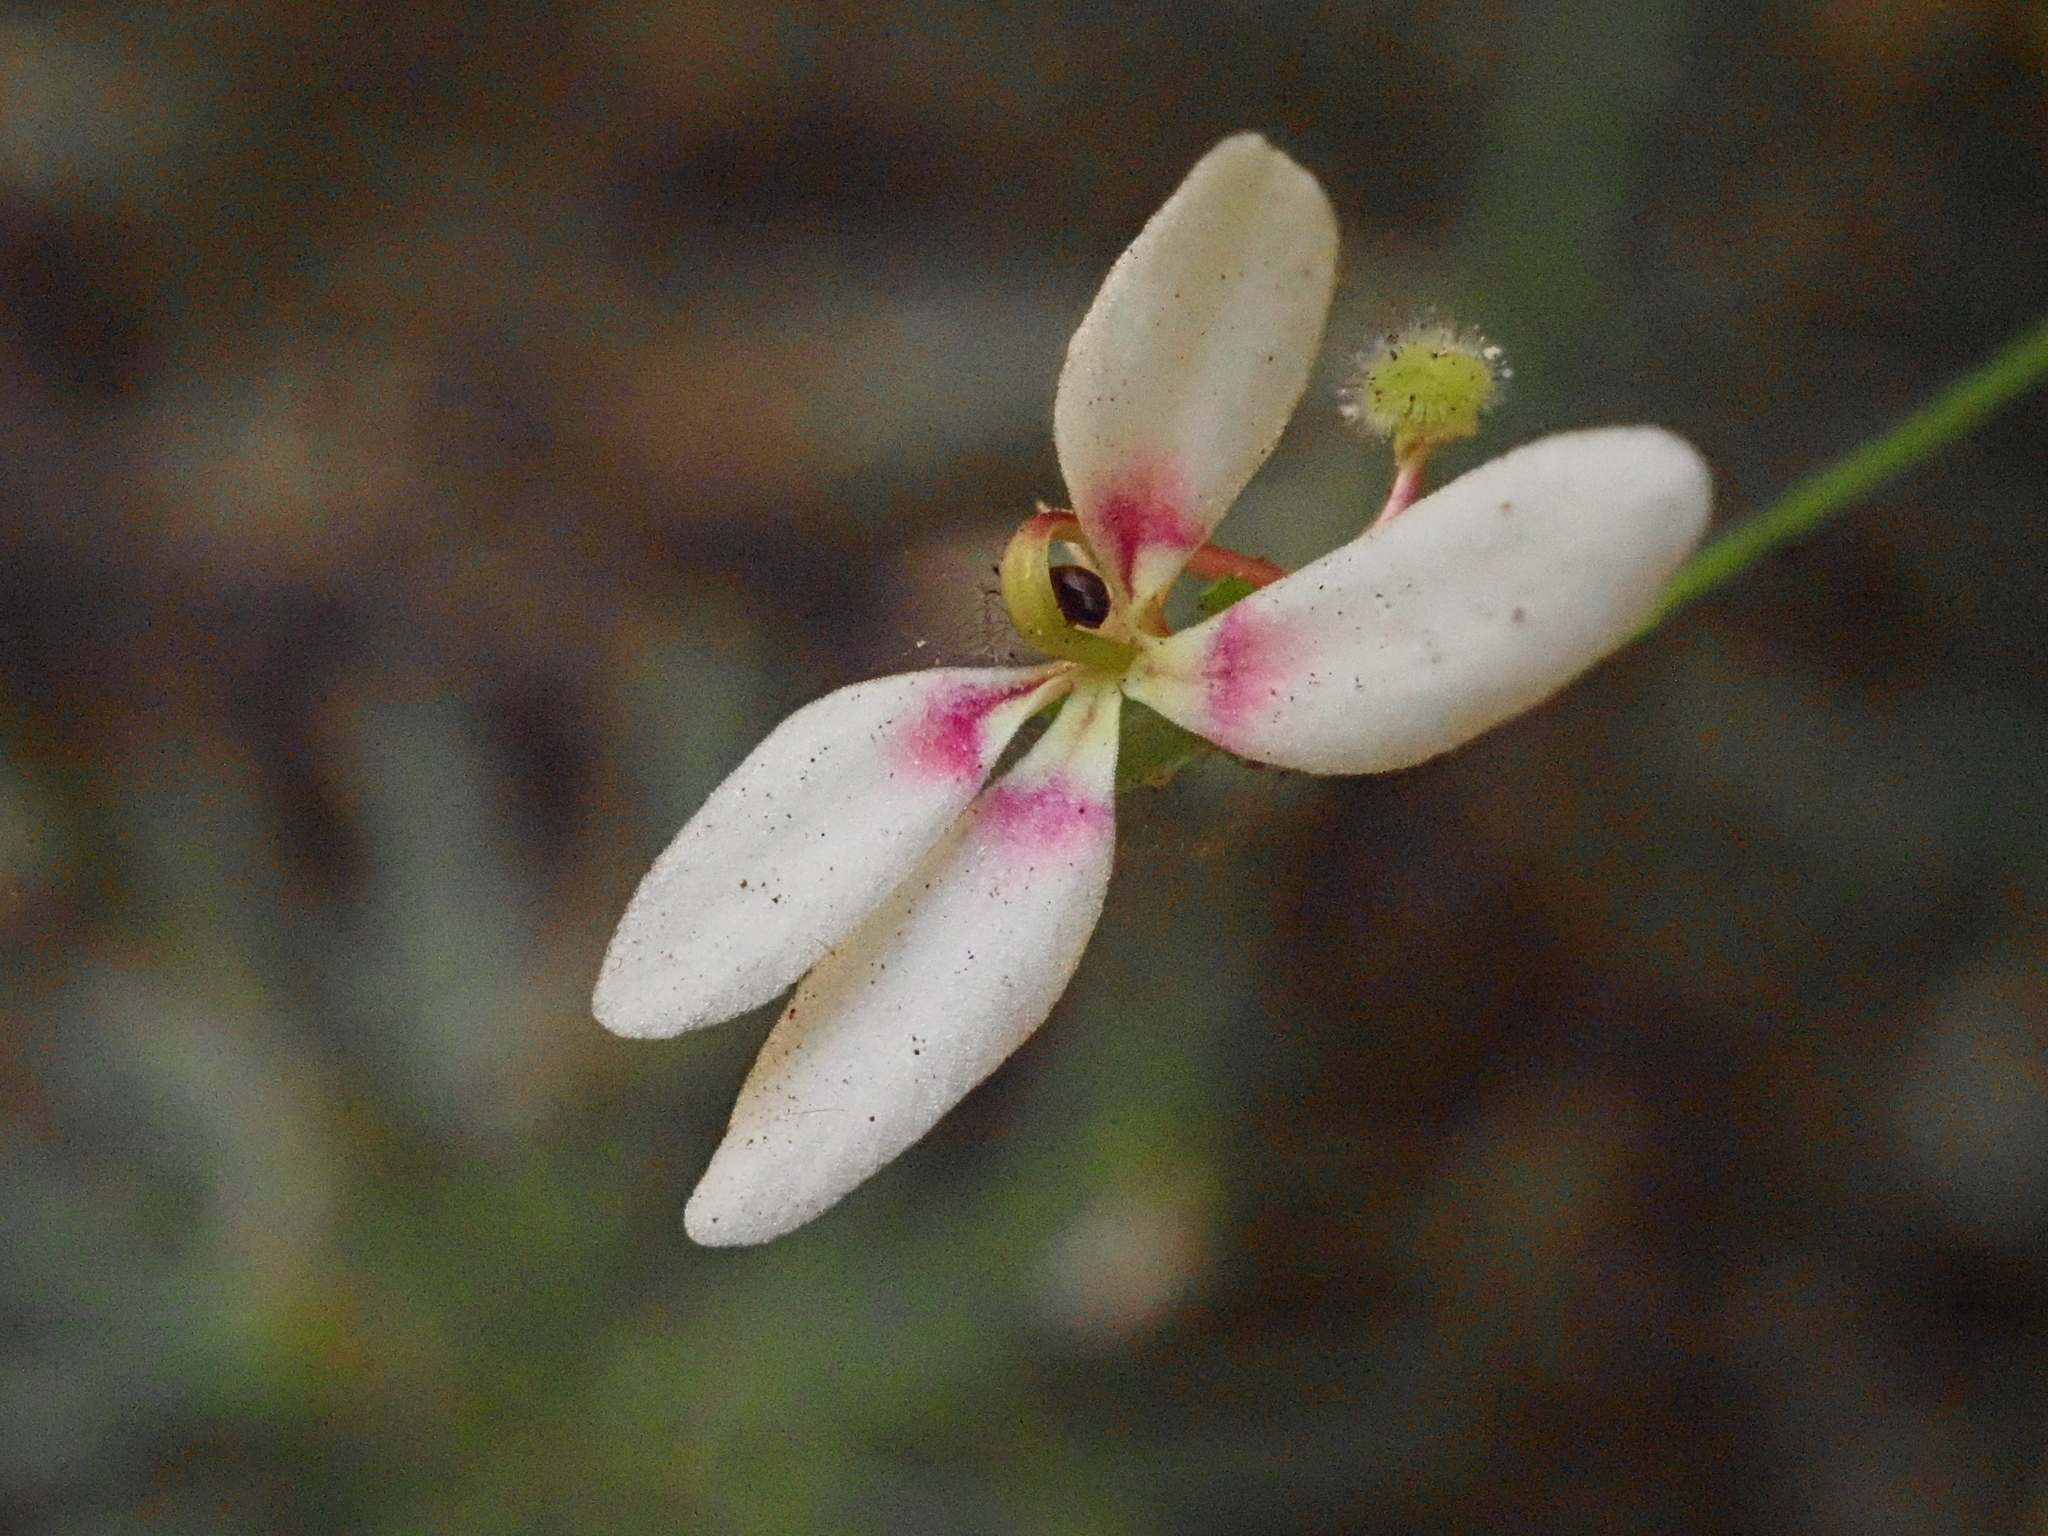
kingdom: Plantae
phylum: Tracheophyta
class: Magnoliopsida
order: Asterales
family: Stylidiaceae
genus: Stylidium
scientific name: Stylidium caespitosum
